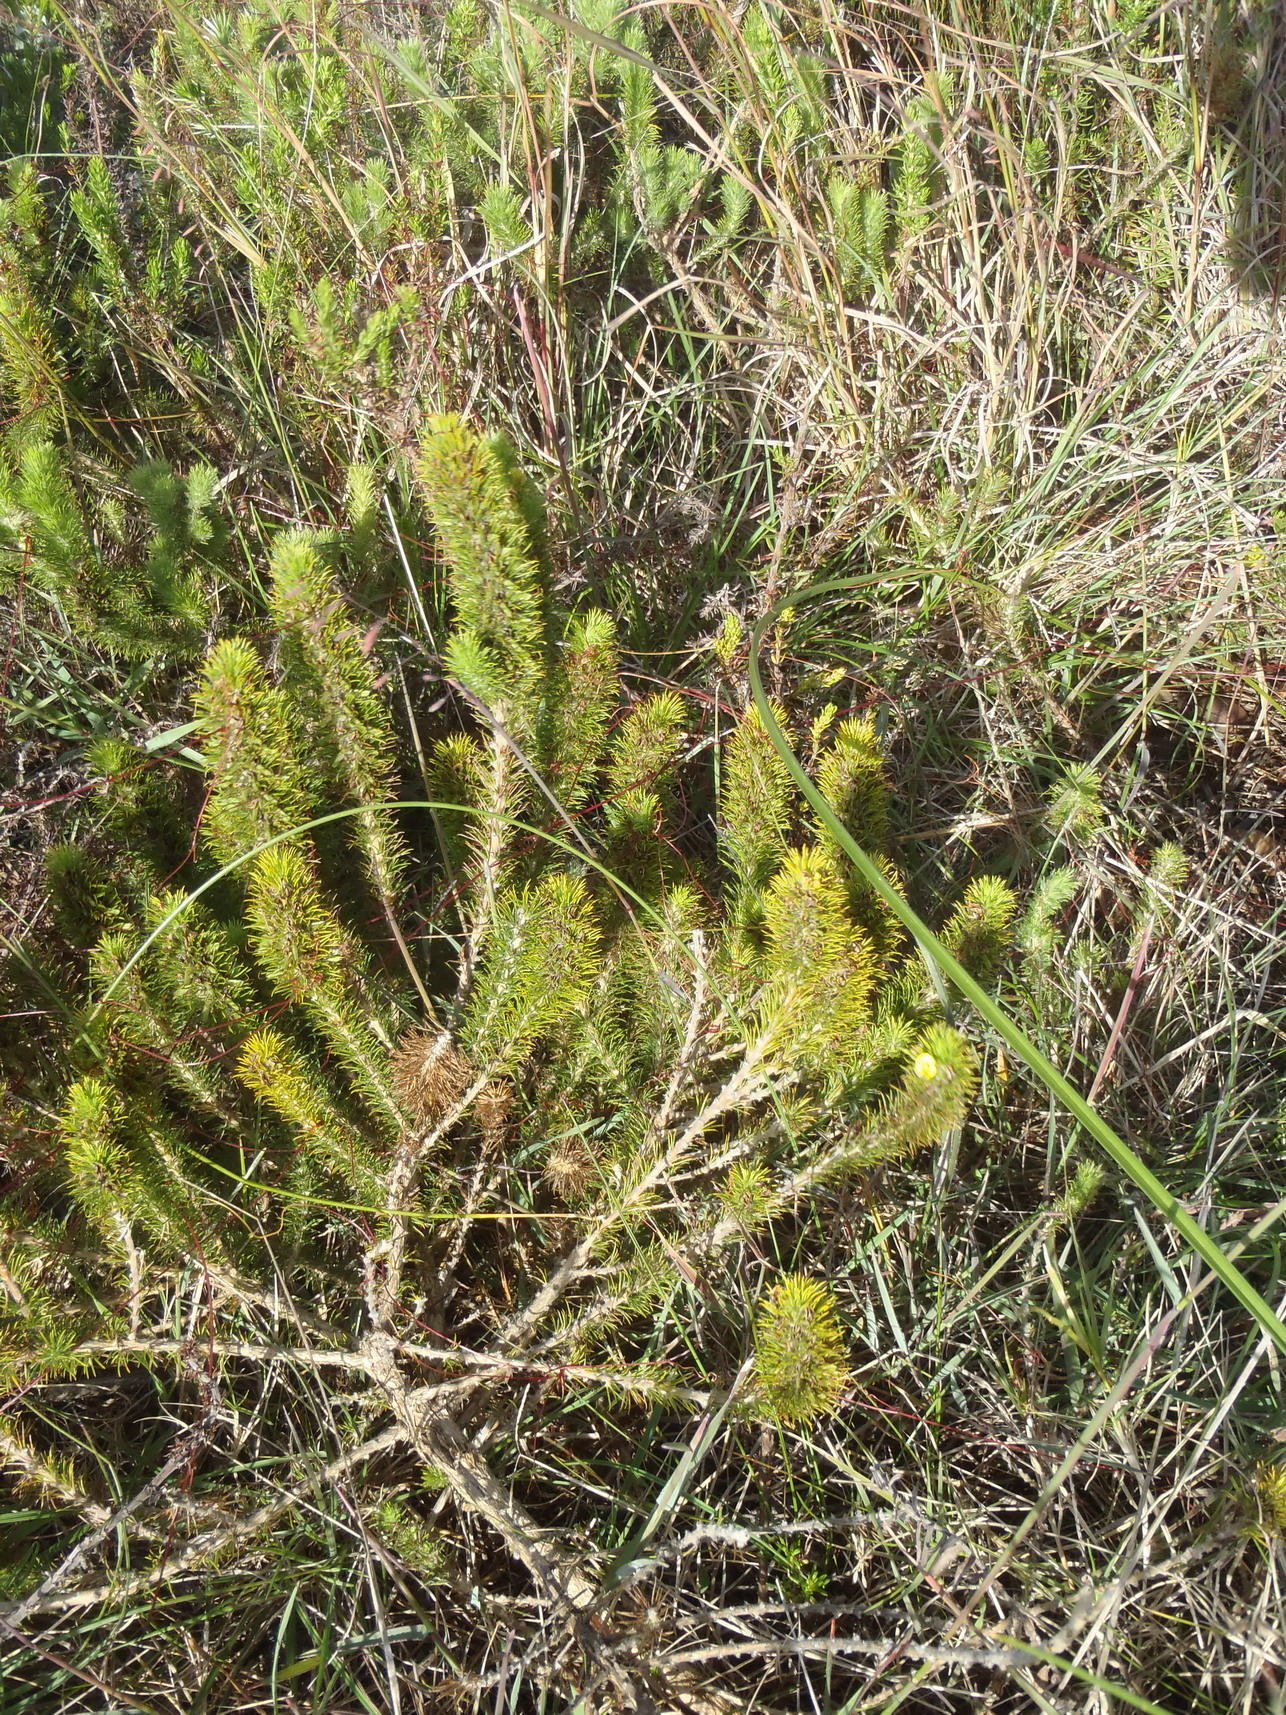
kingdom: Plantae
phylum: Tracheophyta
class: Magnoliopsida
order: Fabales
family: Fabaceae
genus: Aspalathus
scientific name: Aspalathus alopecurus
